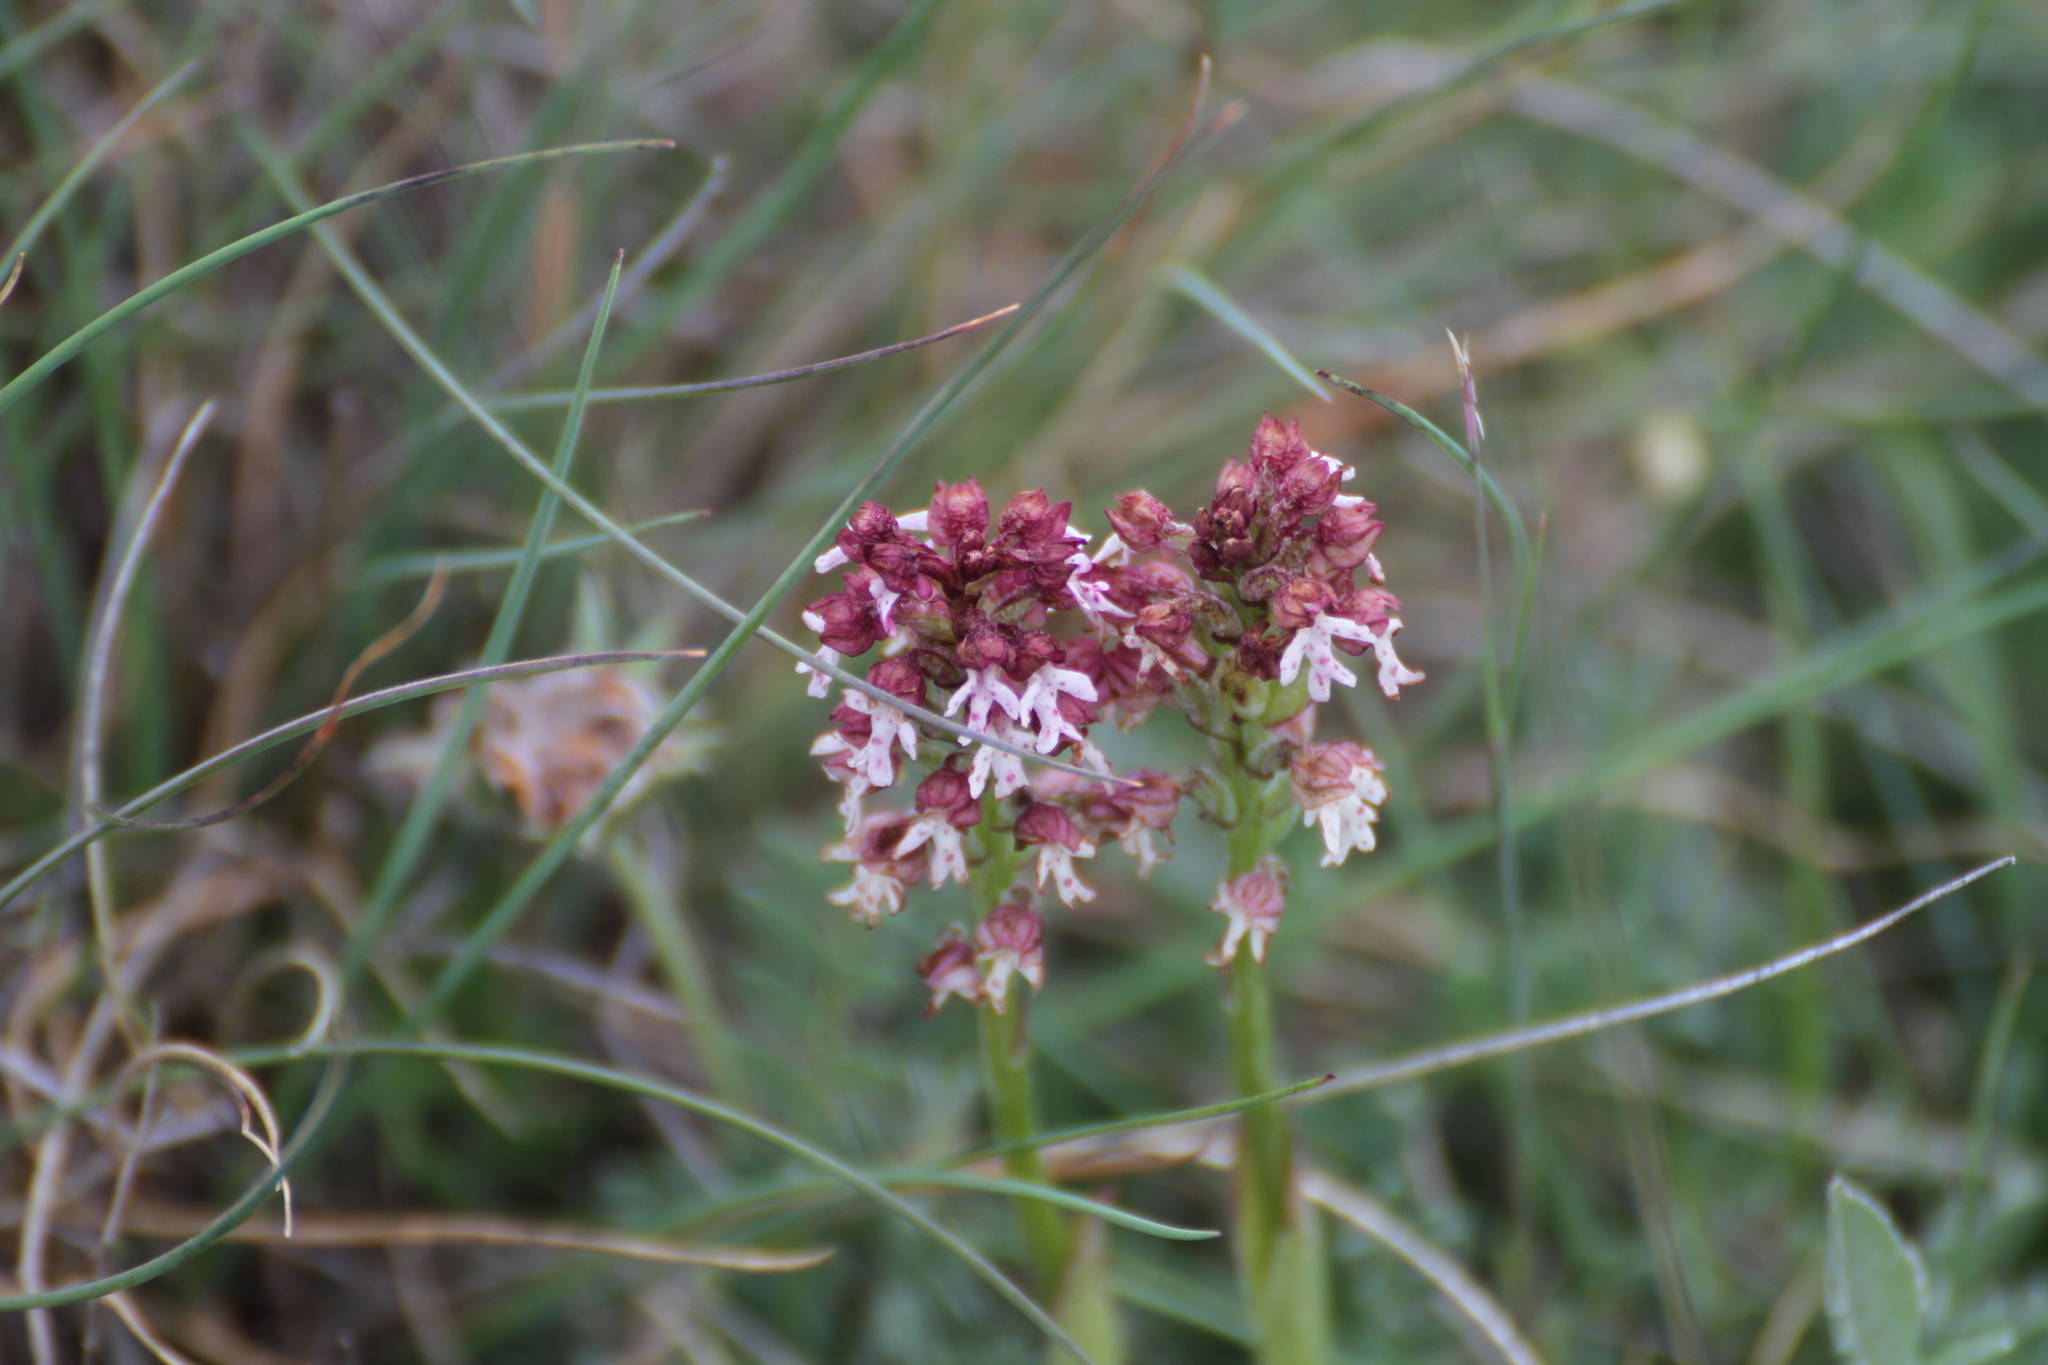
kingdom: Plantae
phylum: Tracheophyta
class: Liliopsida
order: Asparagales
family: Orchidaceae
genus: Neotinea
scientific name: Neotinea ustulata
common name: Burnt orchid
